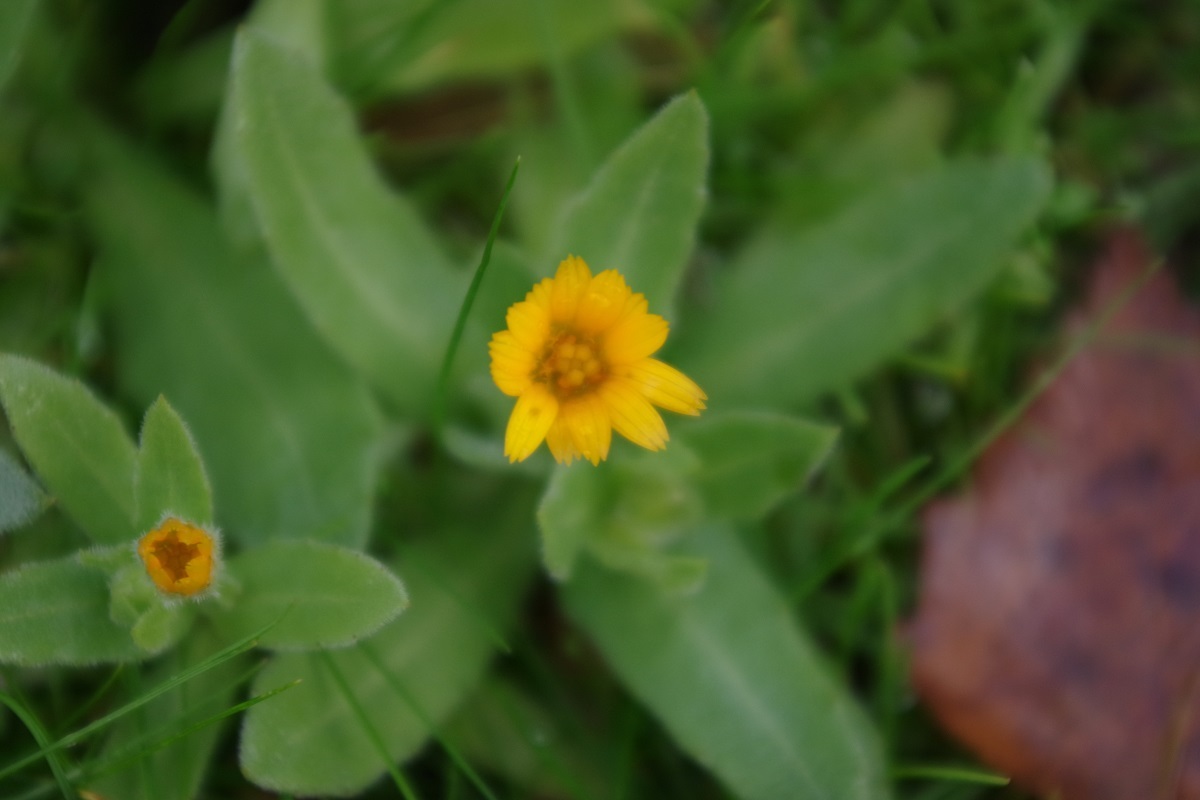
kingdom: Plantae
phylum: Tracheophyta
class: Magnoliopsida
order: Asterales
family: Asteraceae
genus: Calendula
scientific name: Calendula arvensis
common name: Field marigold
